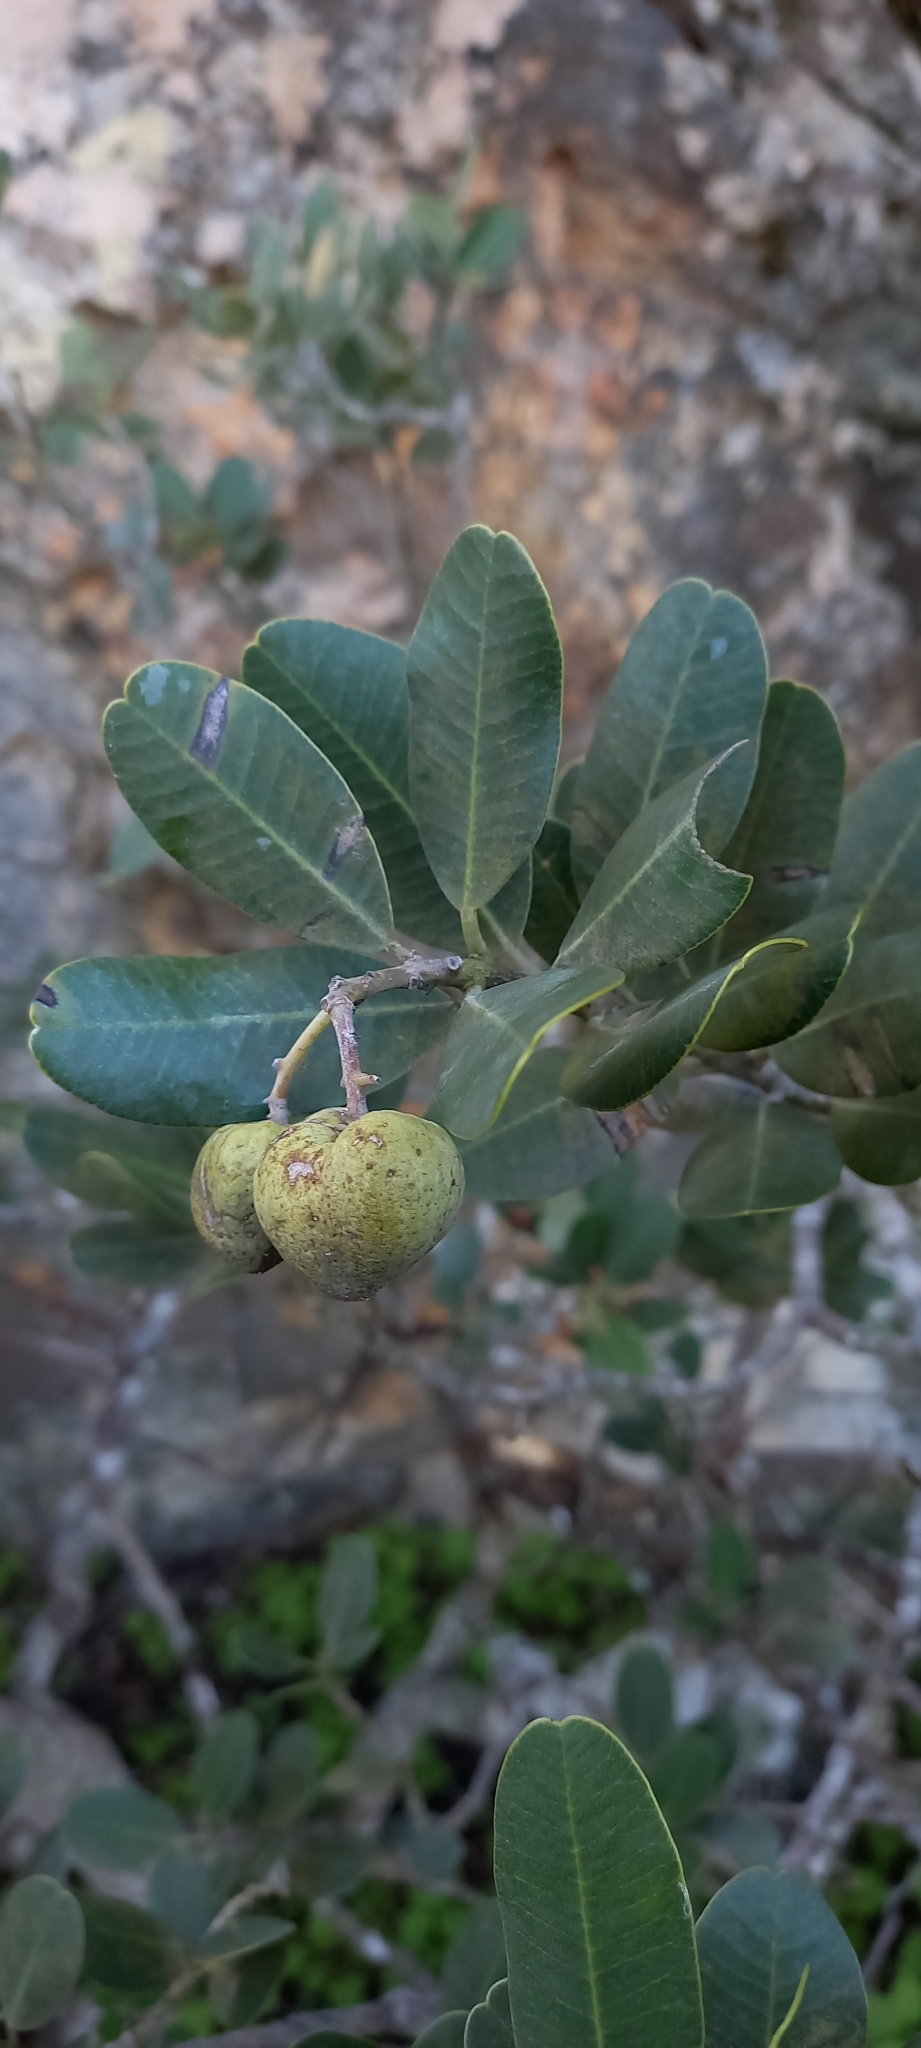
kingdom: Plantae
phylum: Tracheophyta
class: Magnoliopsida
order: Sapindales
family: Anacardiaceae
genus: Heeria
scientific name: Heeria argentea
